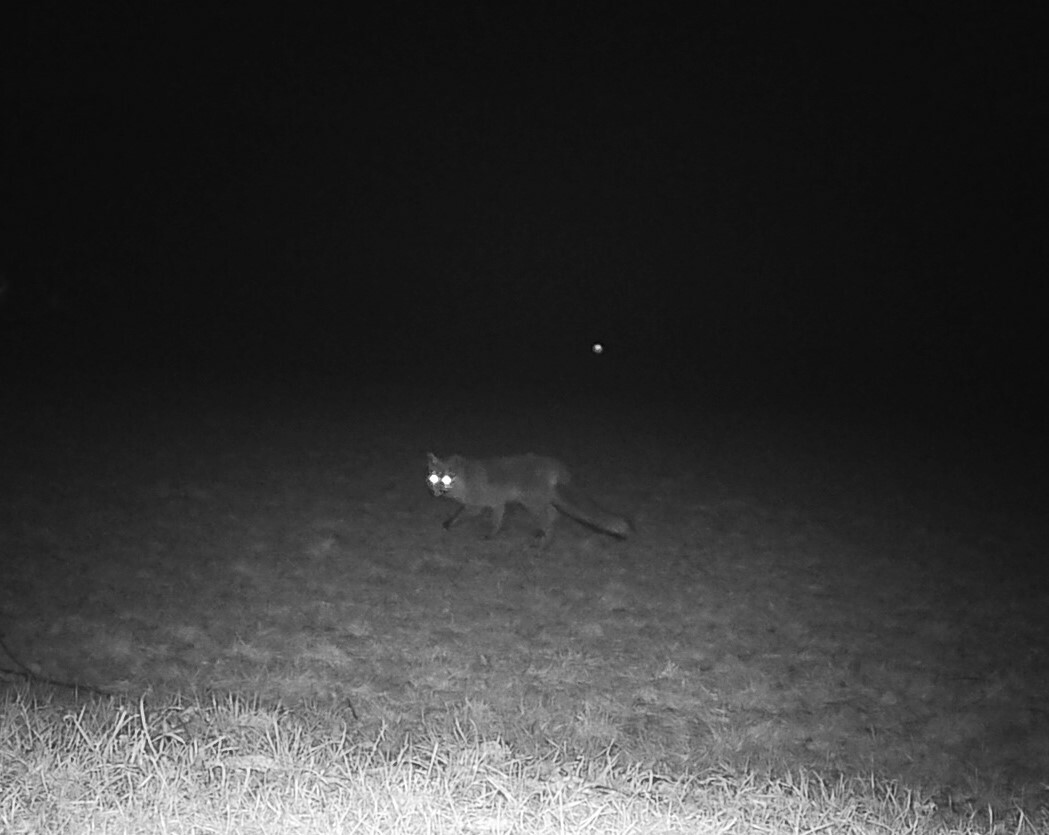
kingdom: Animalia
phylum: Chordata
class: Mammalia
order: Carnivora
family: Canidae
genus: Vulpes
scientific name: Vulpes vulpes
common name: Red fox
